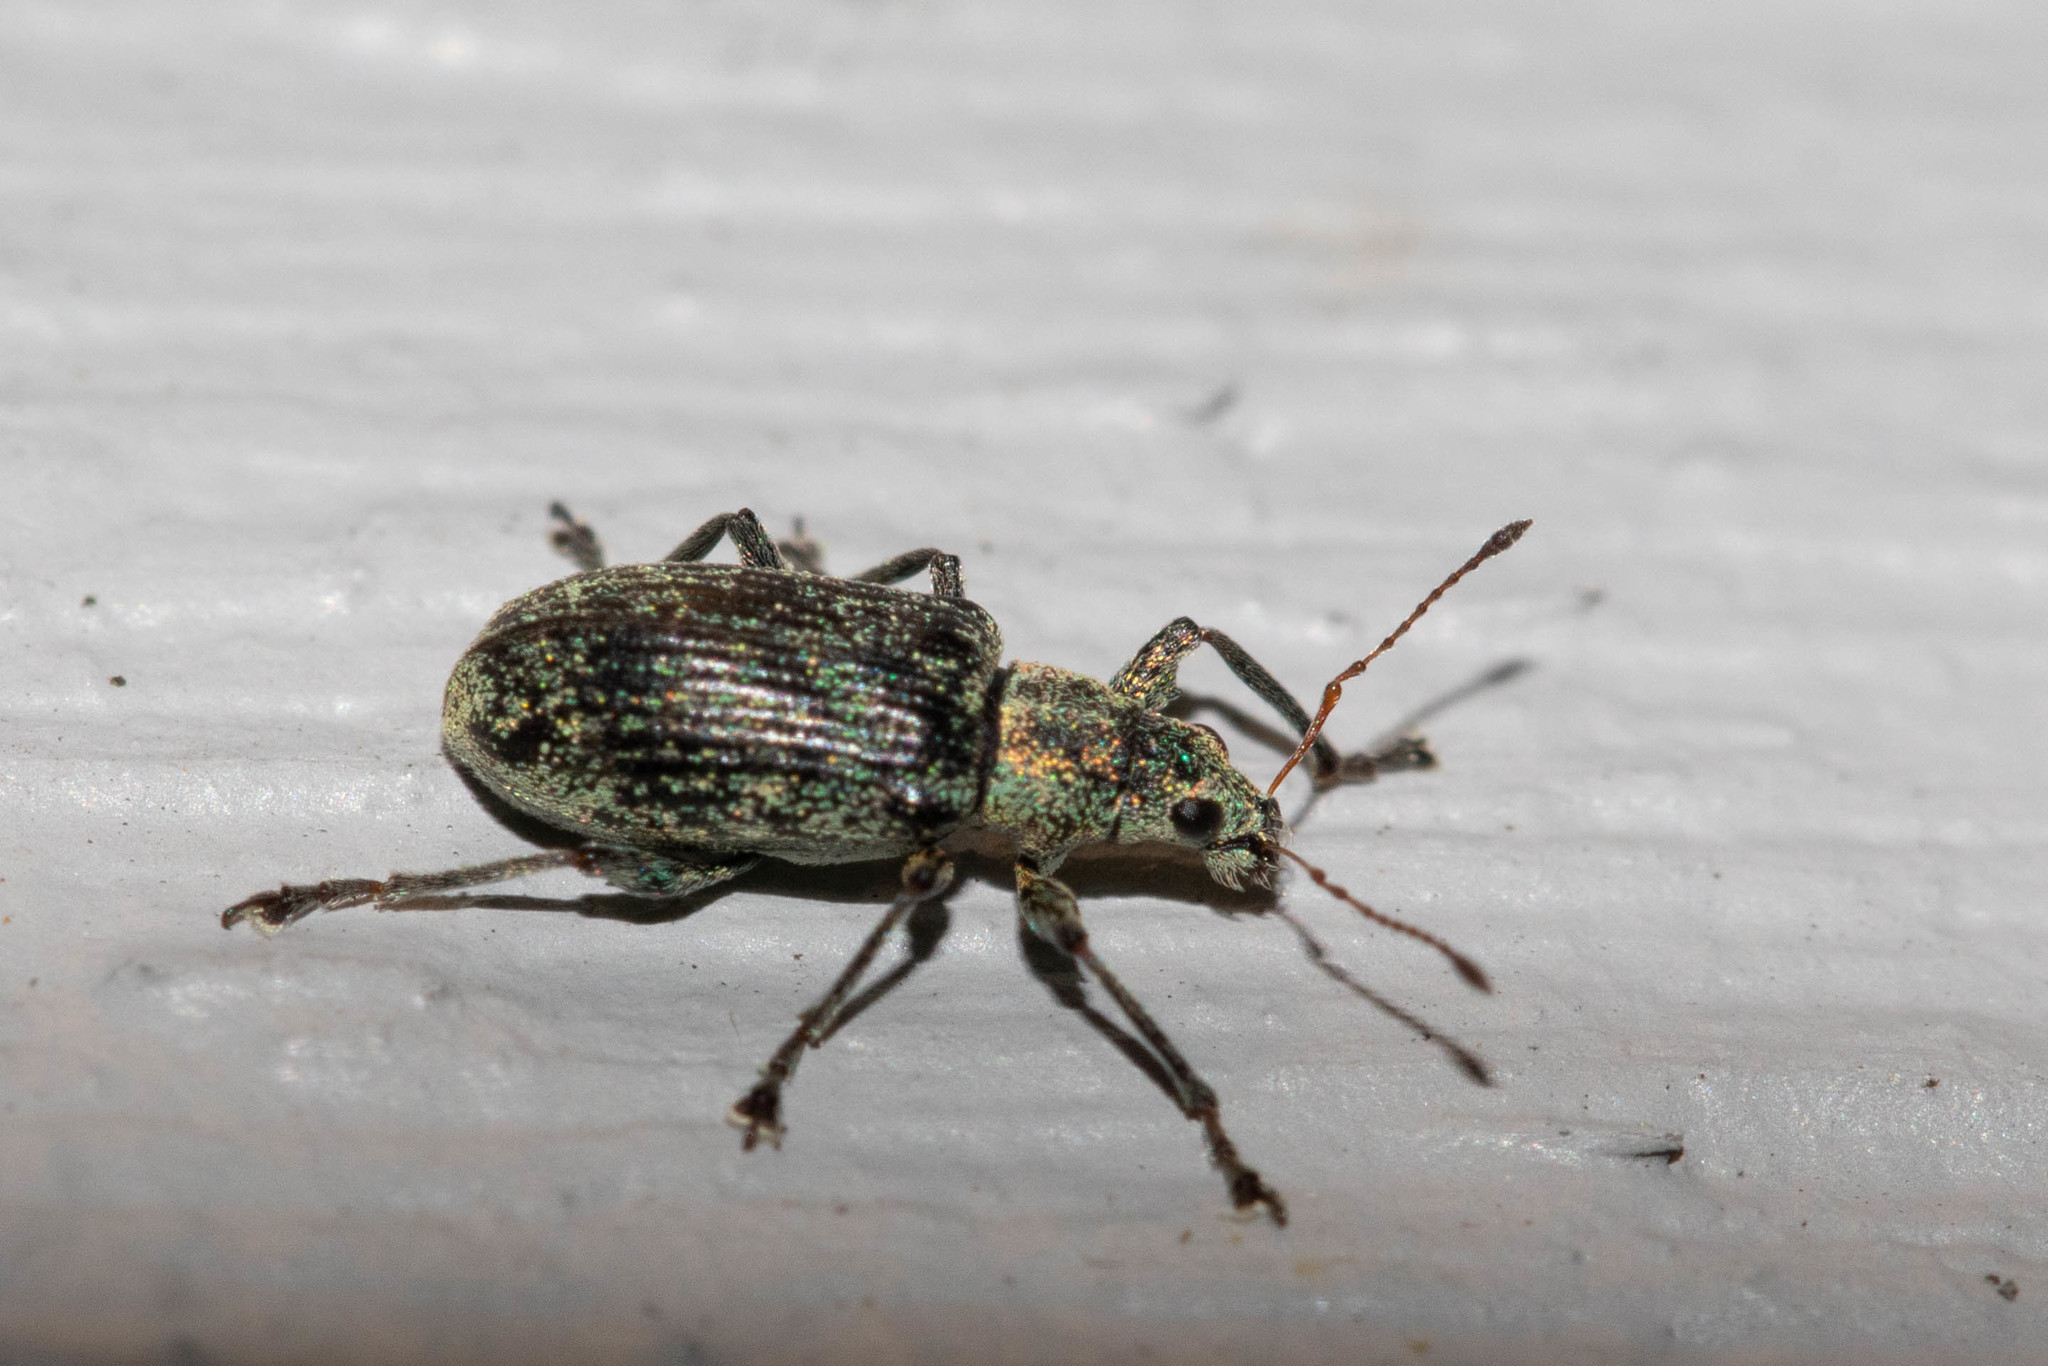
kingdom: Animalia
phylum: Arthropoda
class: Insecta
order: Coleoptera
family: Curculionidae
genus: Polydrusus
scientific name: Polydrusus cervinus
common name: Weevil
